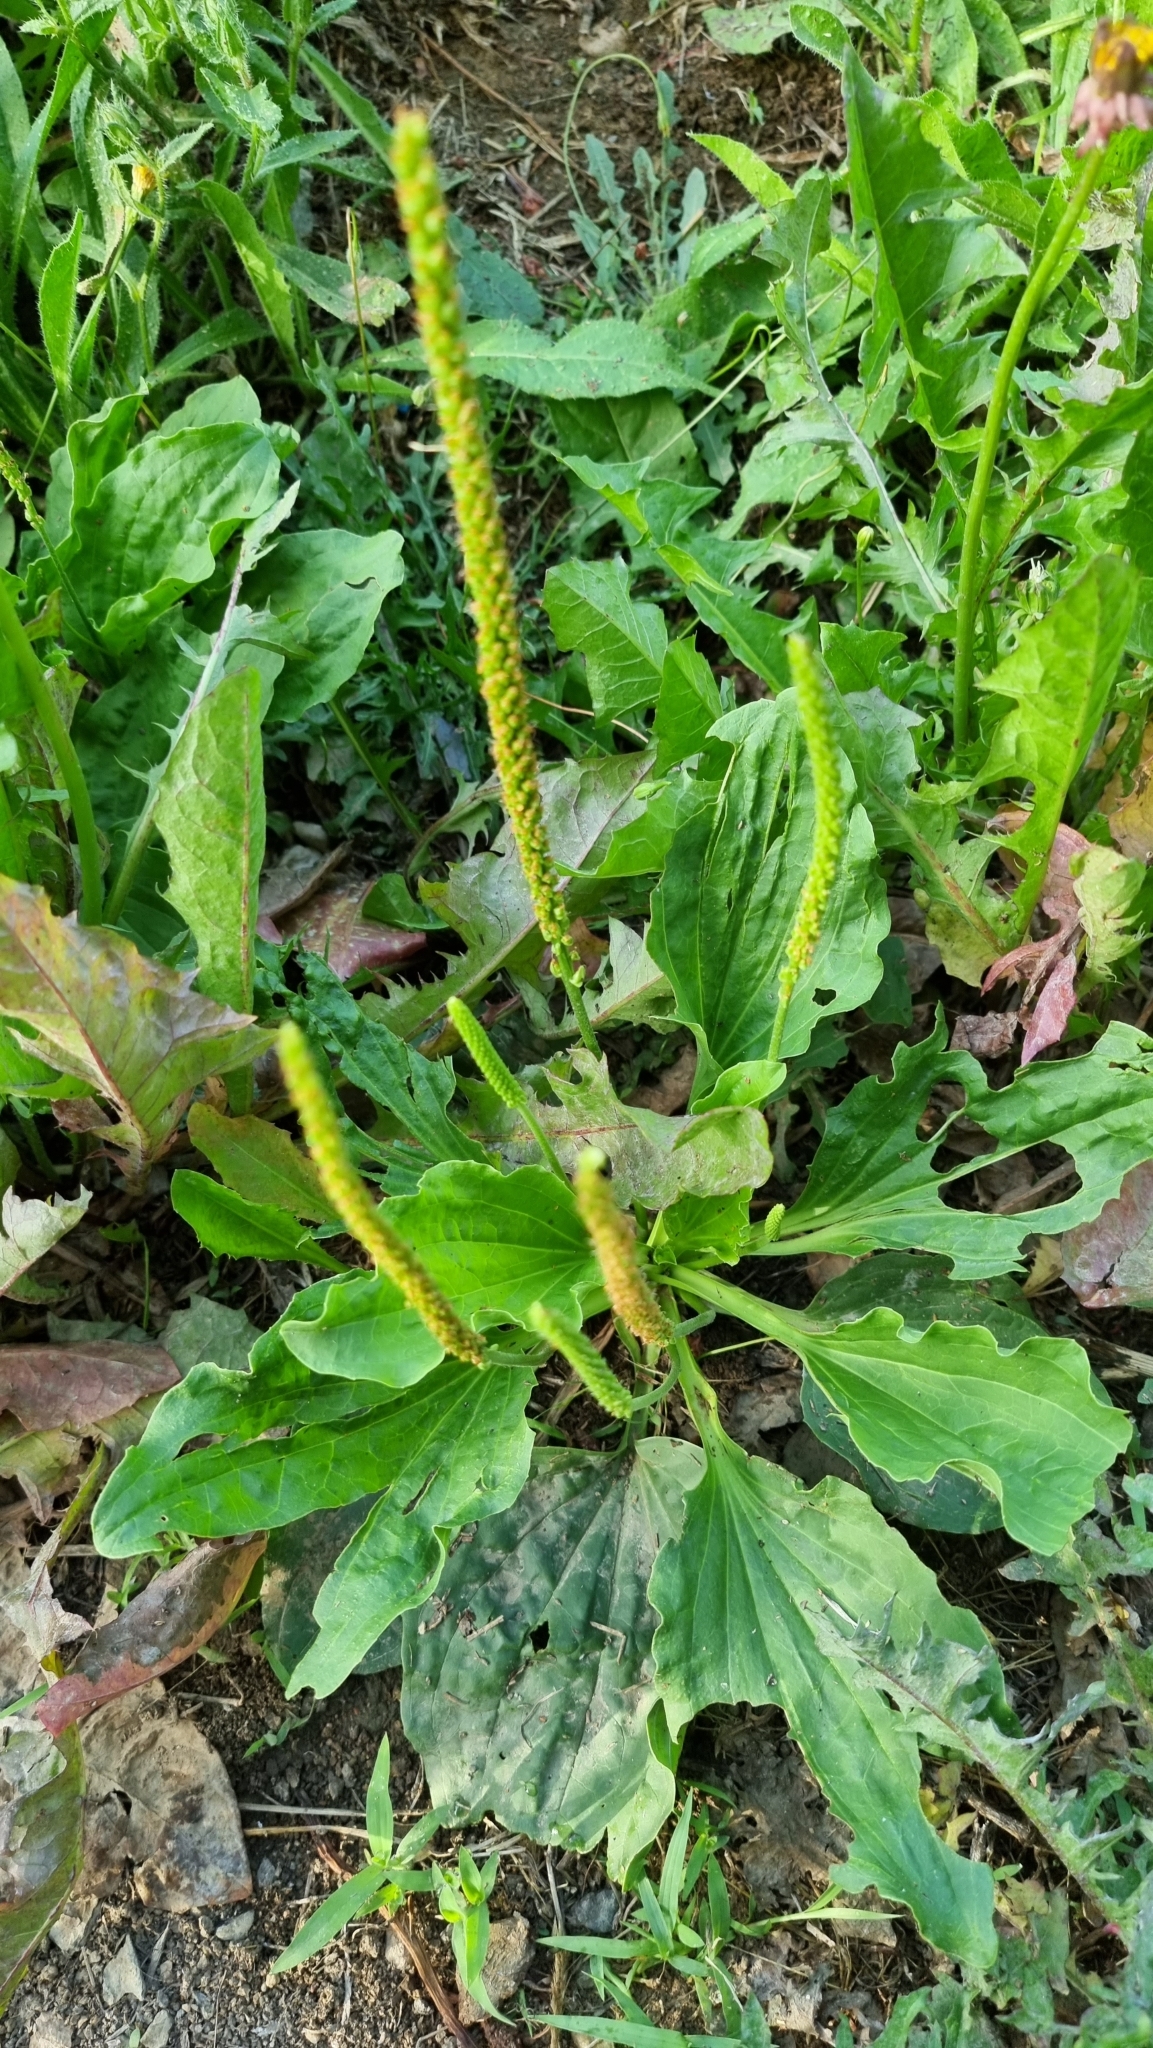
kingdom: Plantae
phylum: Tracheophyta
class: Magnoliopsida
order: Lamiales
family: Plantaginaceae
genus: Plantago
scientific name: Plantago major
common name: Common plantain
